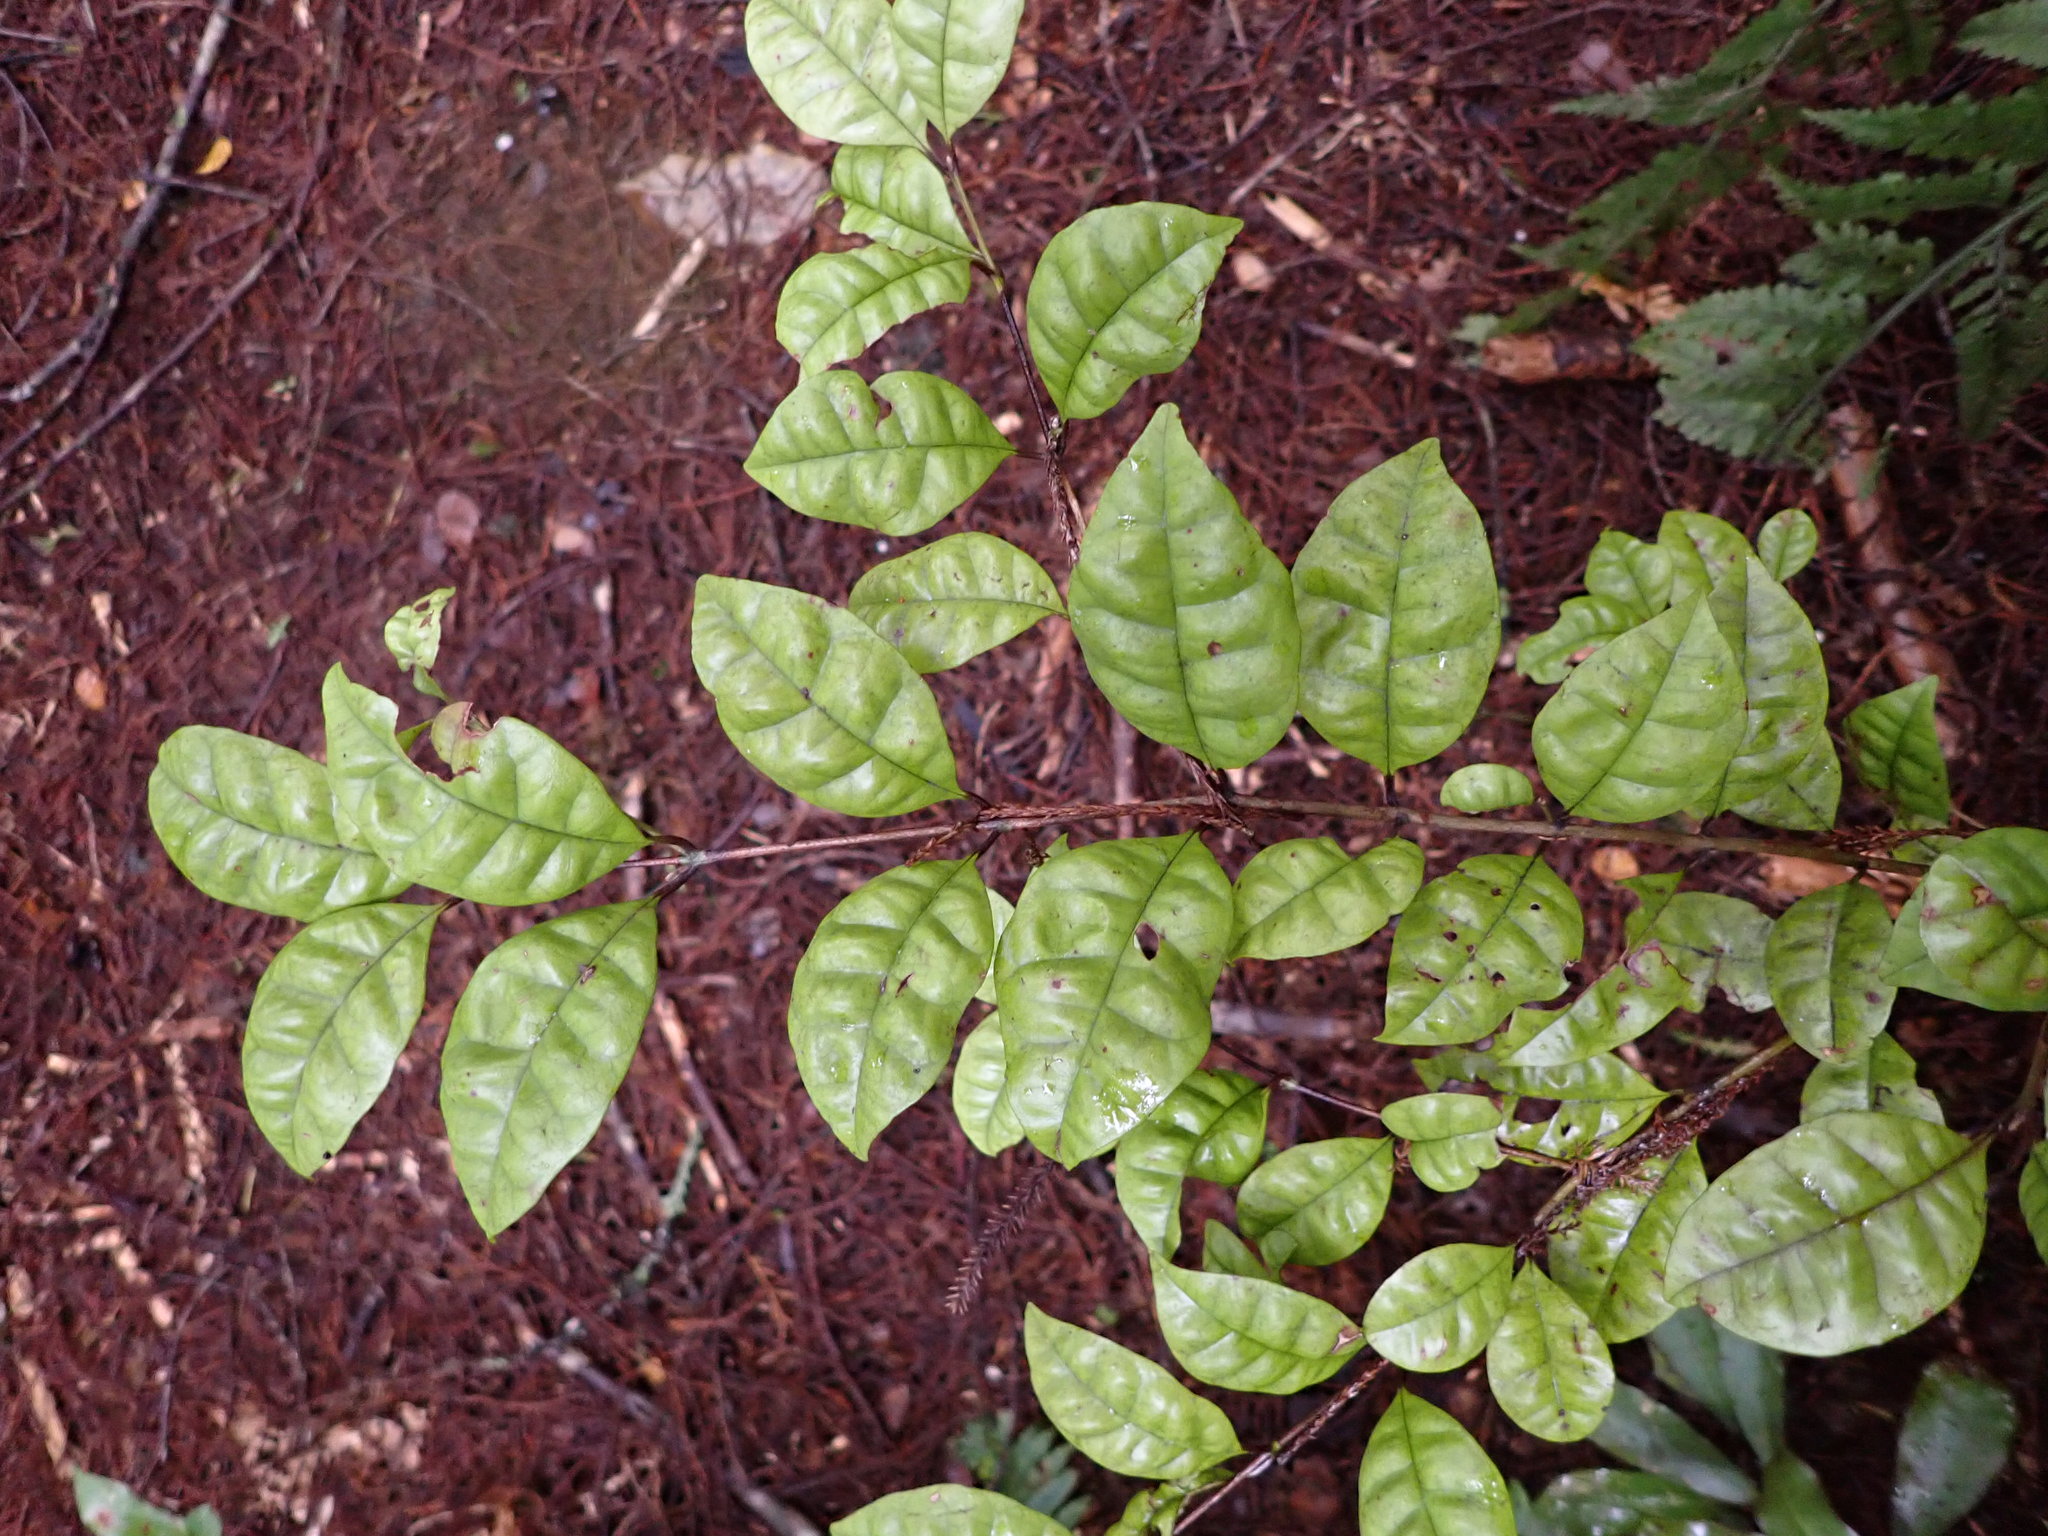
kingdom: Plantae
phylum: Tracheophyta
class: Magnoliopsida
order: Myrtales
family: Myrtaceae
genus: Lophomyrtus
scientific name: Lophomyrtus bullata
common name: Rama rama
